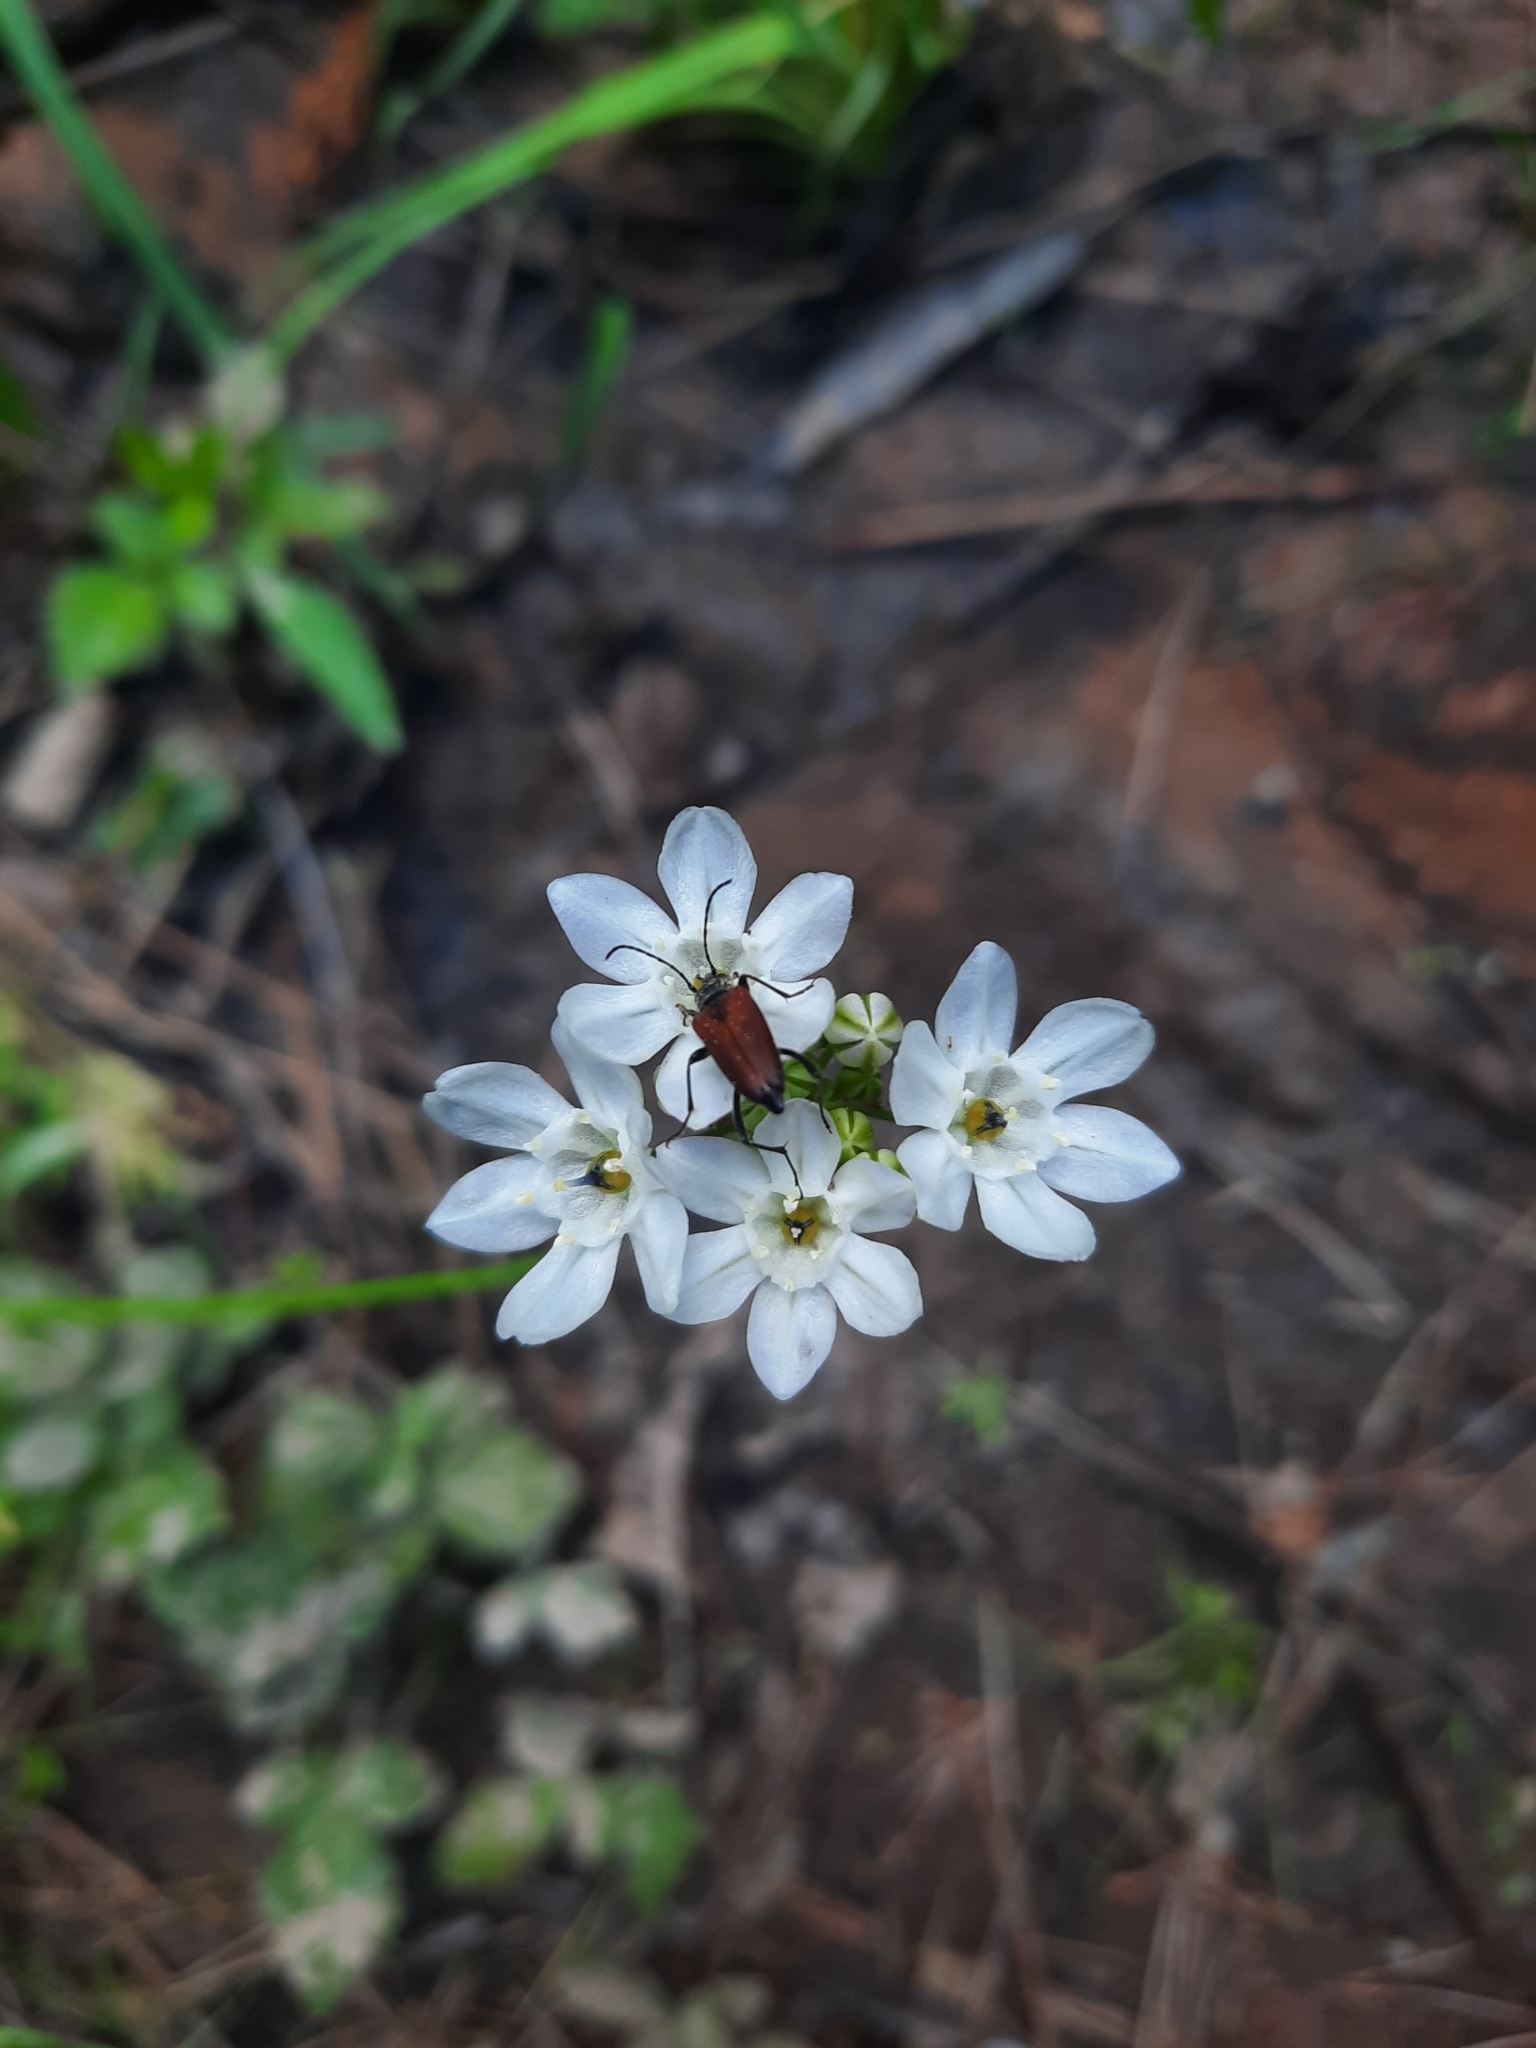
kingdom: Plantae
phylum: Tracheophyta
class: Liliopsida
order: Asparagales
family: Asparagaceae
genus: Triteleia
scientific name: Triteleia hyacinthina
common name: White brodiaea
